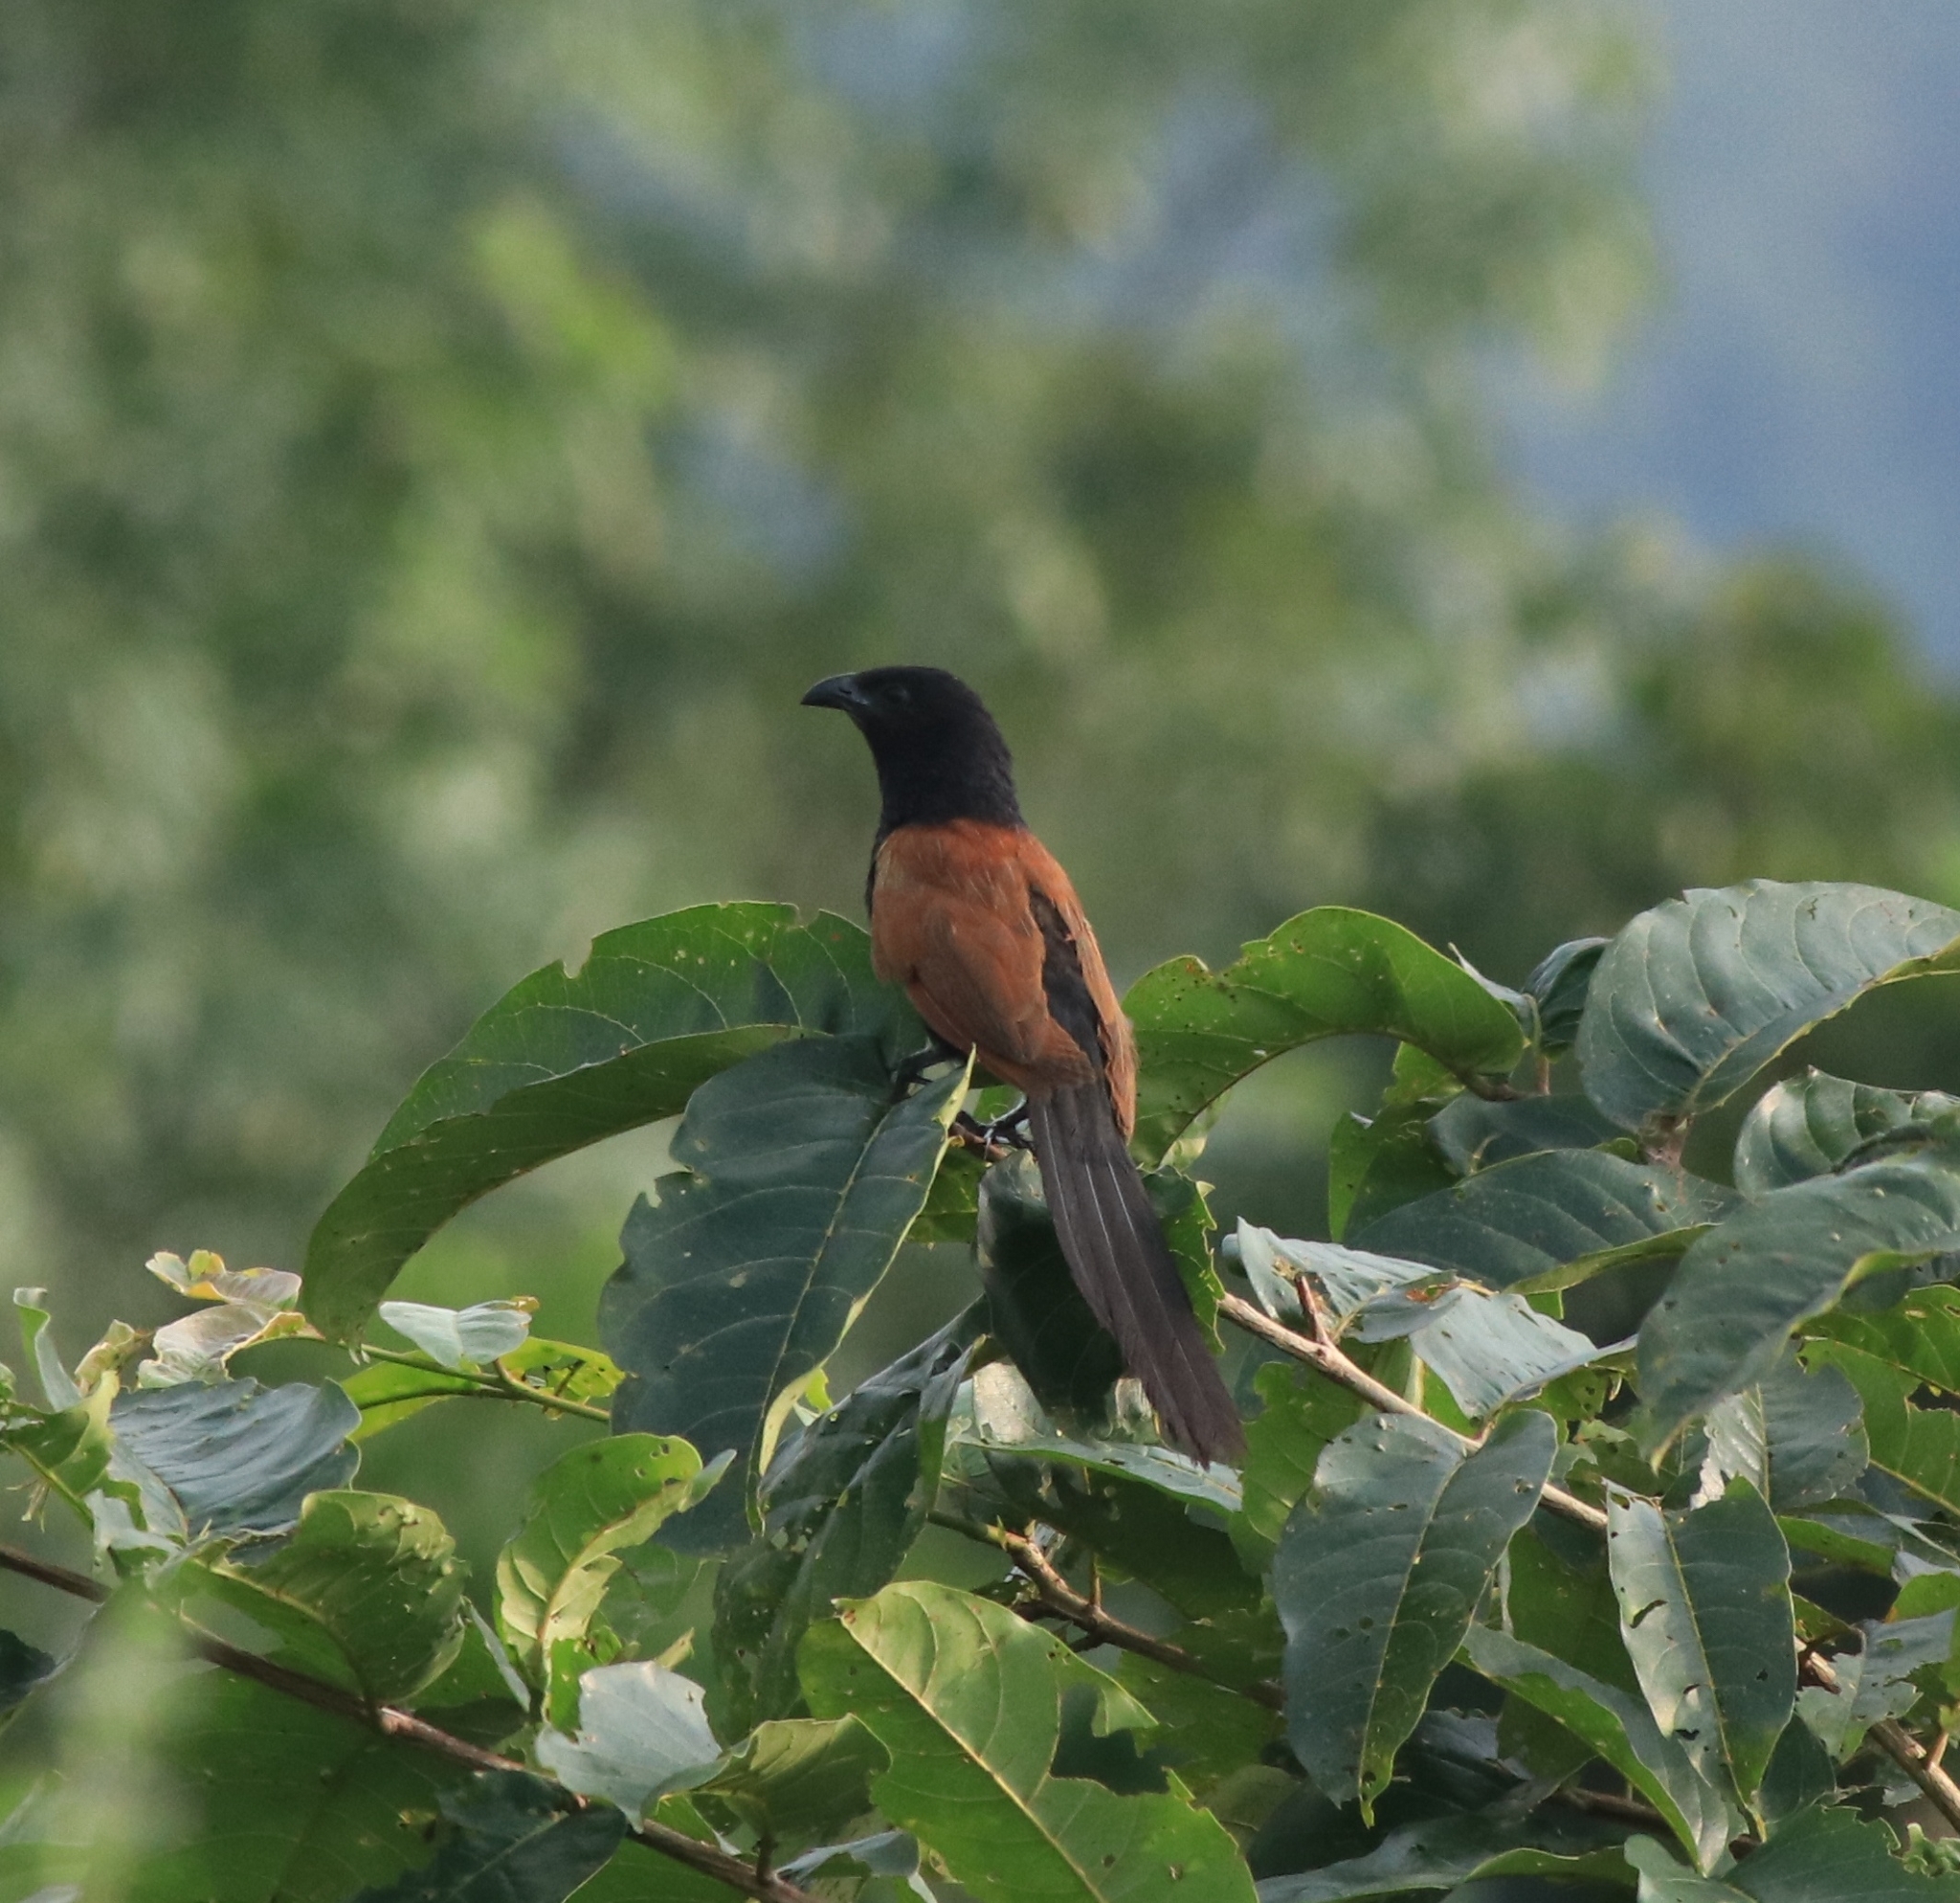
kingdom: Animalia
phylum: Chordata
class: Aves
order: Cuculiformes
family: Cuculidae
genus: Centropus
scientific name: Centropus bengalensis
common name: Lesser coucal
